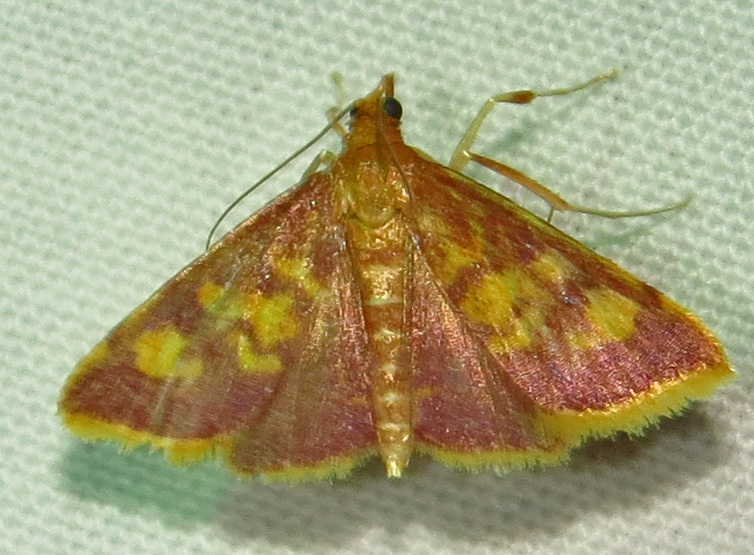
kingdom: Animalia
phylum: Arthropoda
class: Insecta
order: Lepidoptera
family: Crambidae
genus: Pyrausta
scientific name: Pyrausta acrionalis
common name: Mint-loving pyrausta moth
